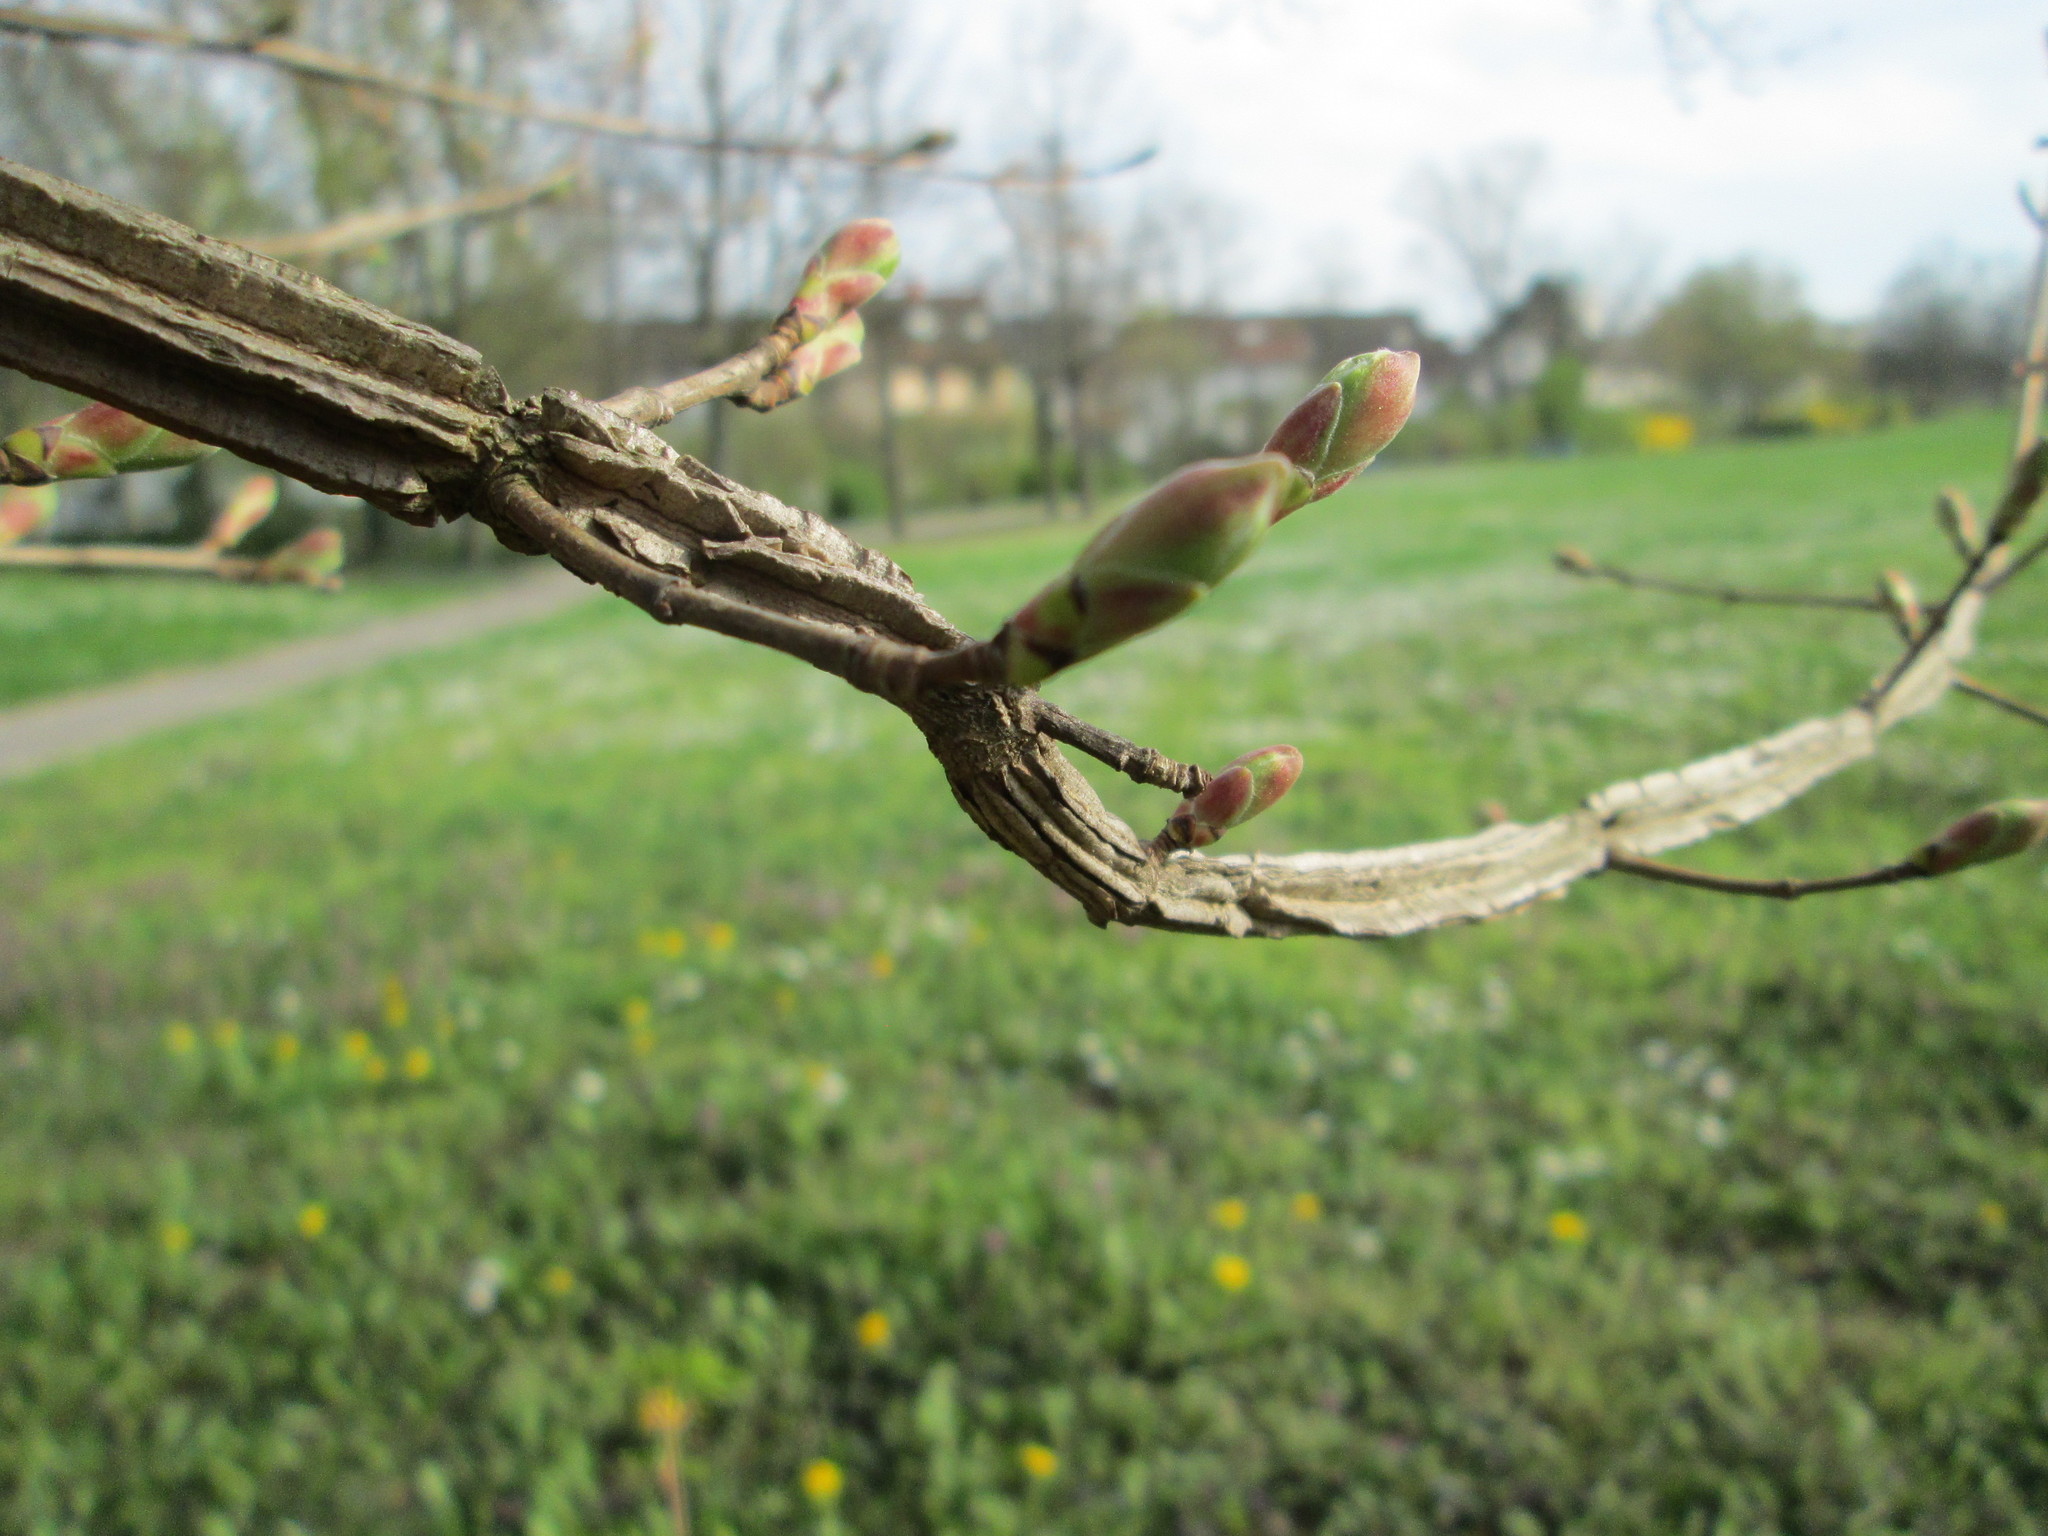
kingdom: Plantae
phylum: Tracheophyta
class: Magnoliopsida
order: Sapindales
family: Sapindaceae
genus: Acer
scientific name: Acer campestre
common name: Field maple
